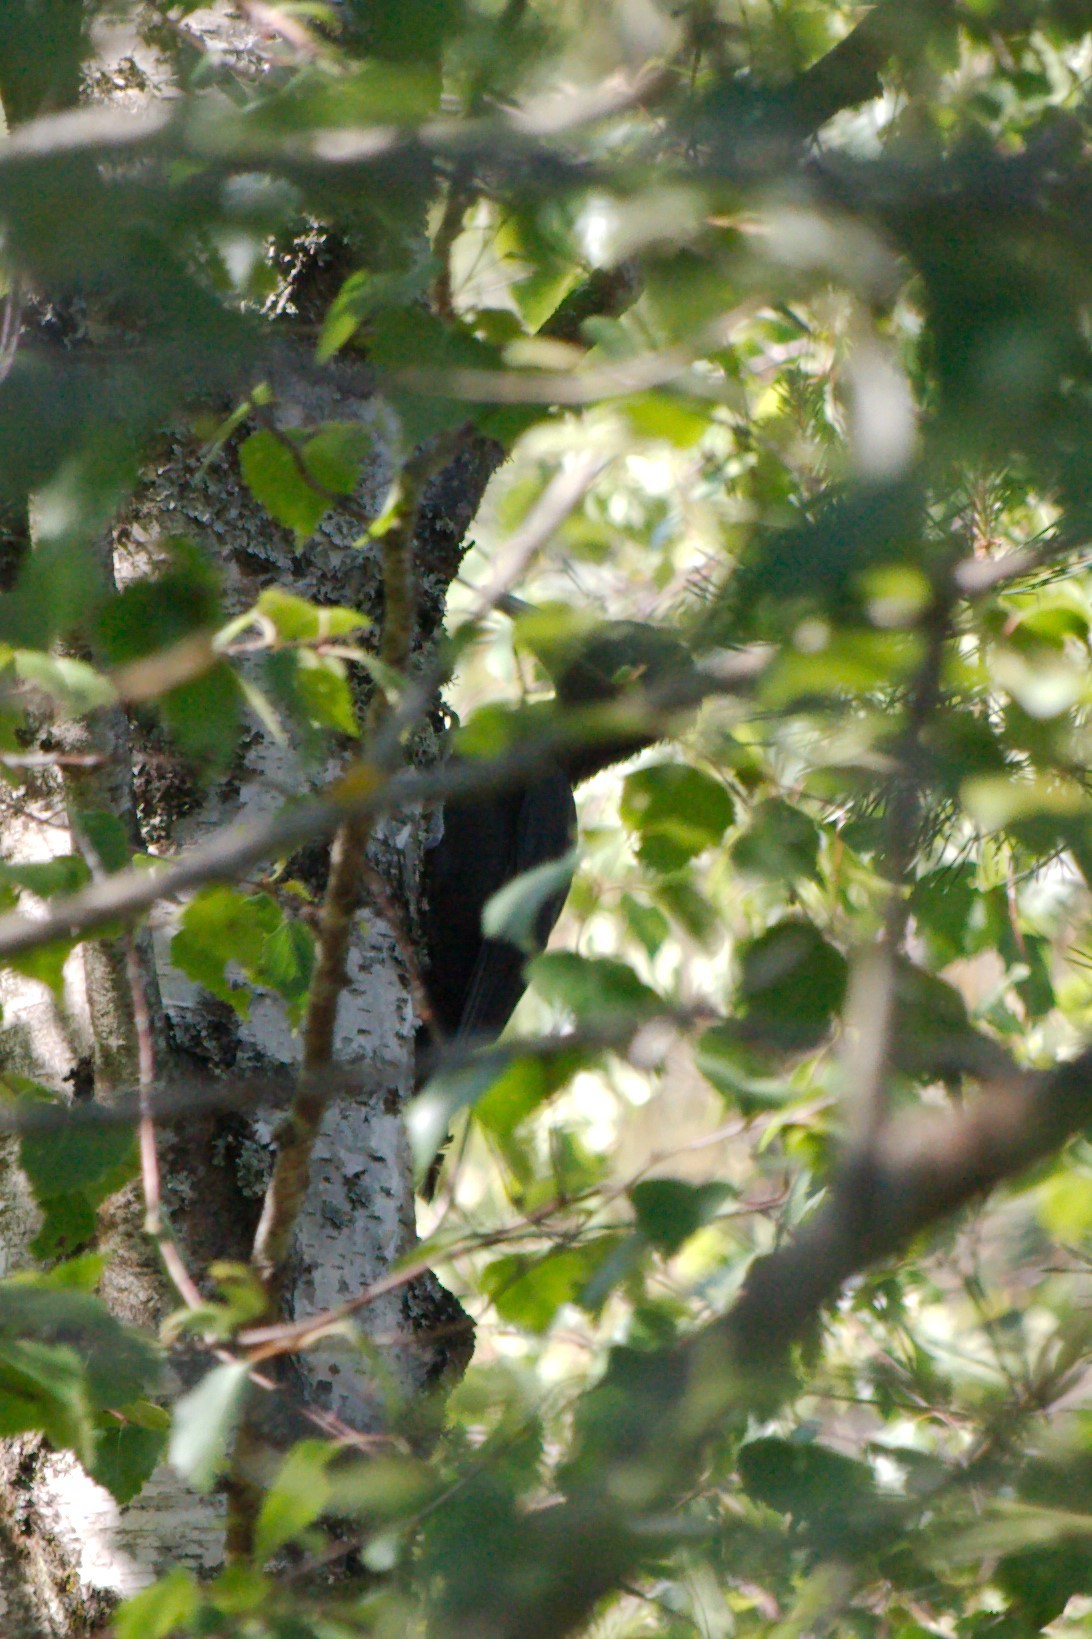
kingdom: Animalia
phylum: Chordata
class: Aves
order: Piciformes
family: Picidae
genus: Dryocopus
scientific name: Dryocopus martius
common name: Black woodpecker
